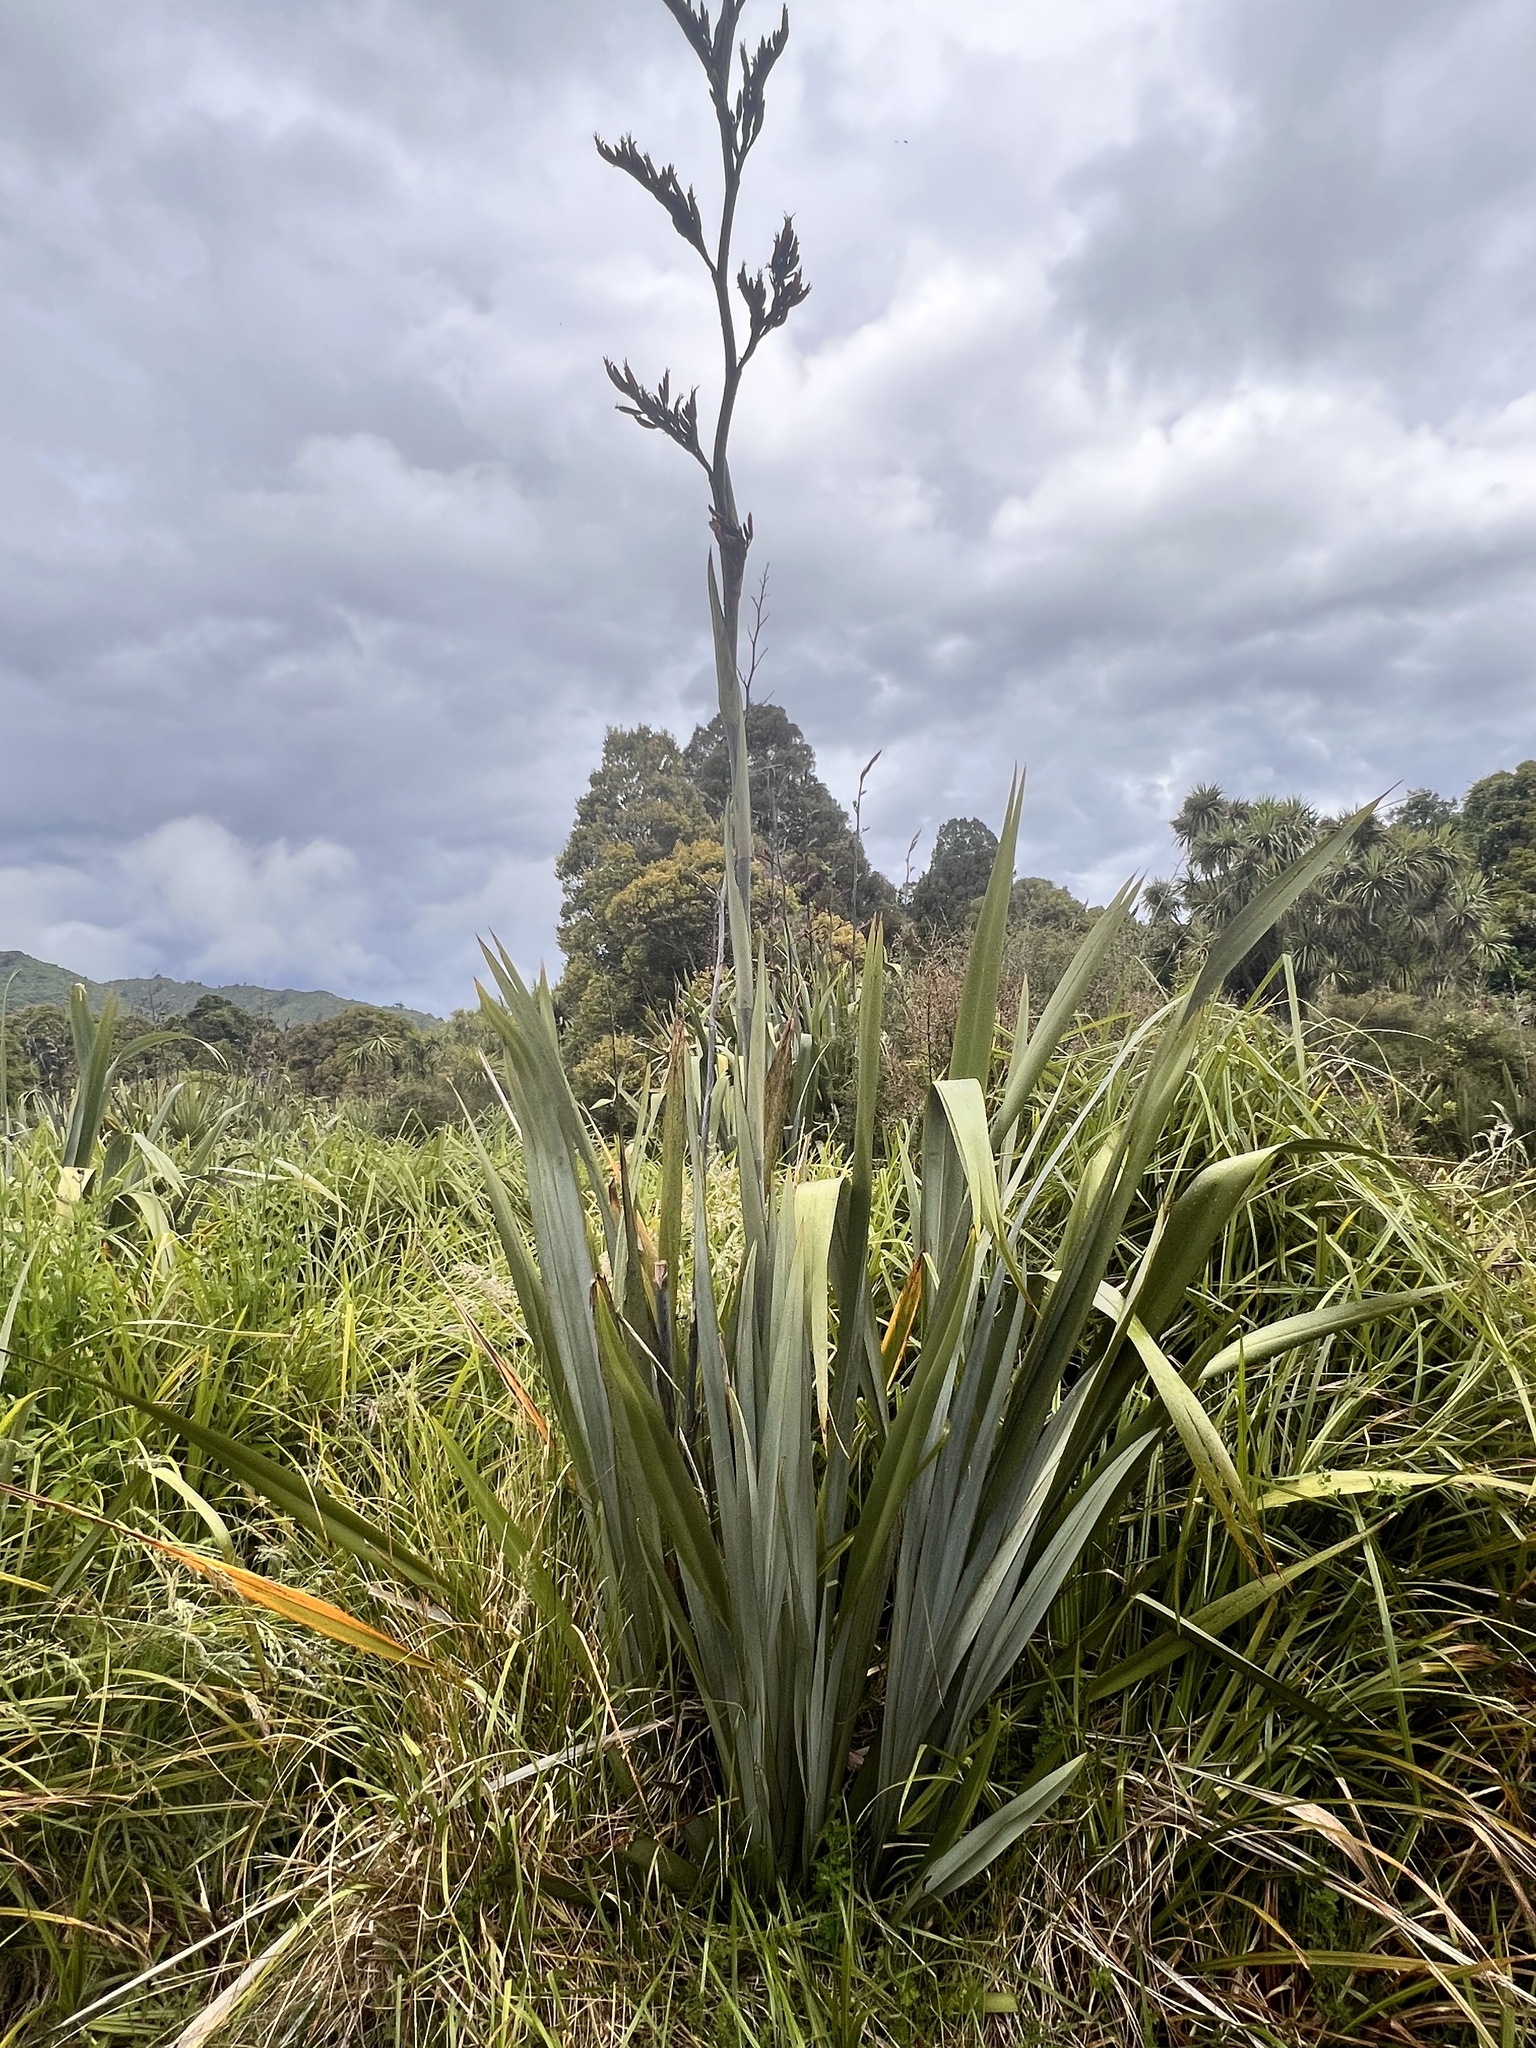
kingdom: Plantae
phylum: Tracheophyta
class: Liliopsida
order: Asparagales
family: Asphodelaceae
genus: Phormium
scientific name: Phormium tenax
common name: New zealand flax
